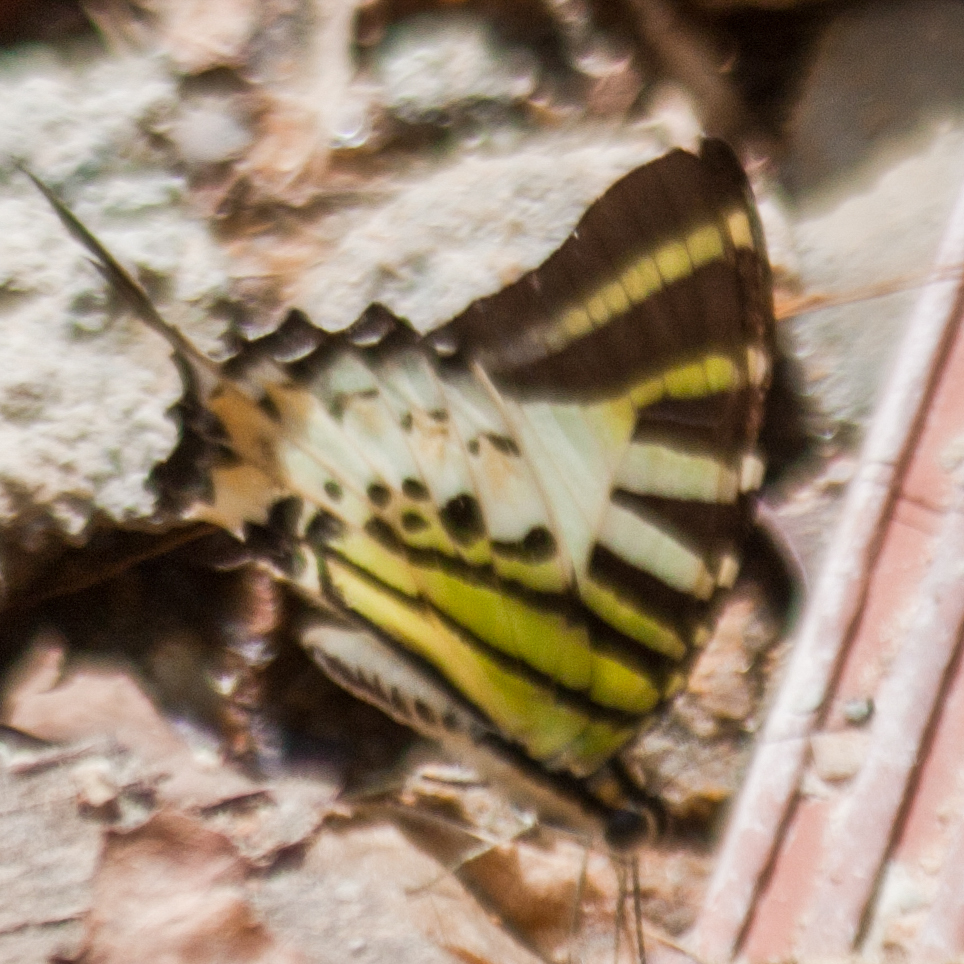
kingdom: Animalia
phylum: Arthropoda
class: Insecta
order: Lepidoptera
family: Papilionidae
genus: Graphium
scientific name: Graphium antiphates
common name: Fivebar swordtail
